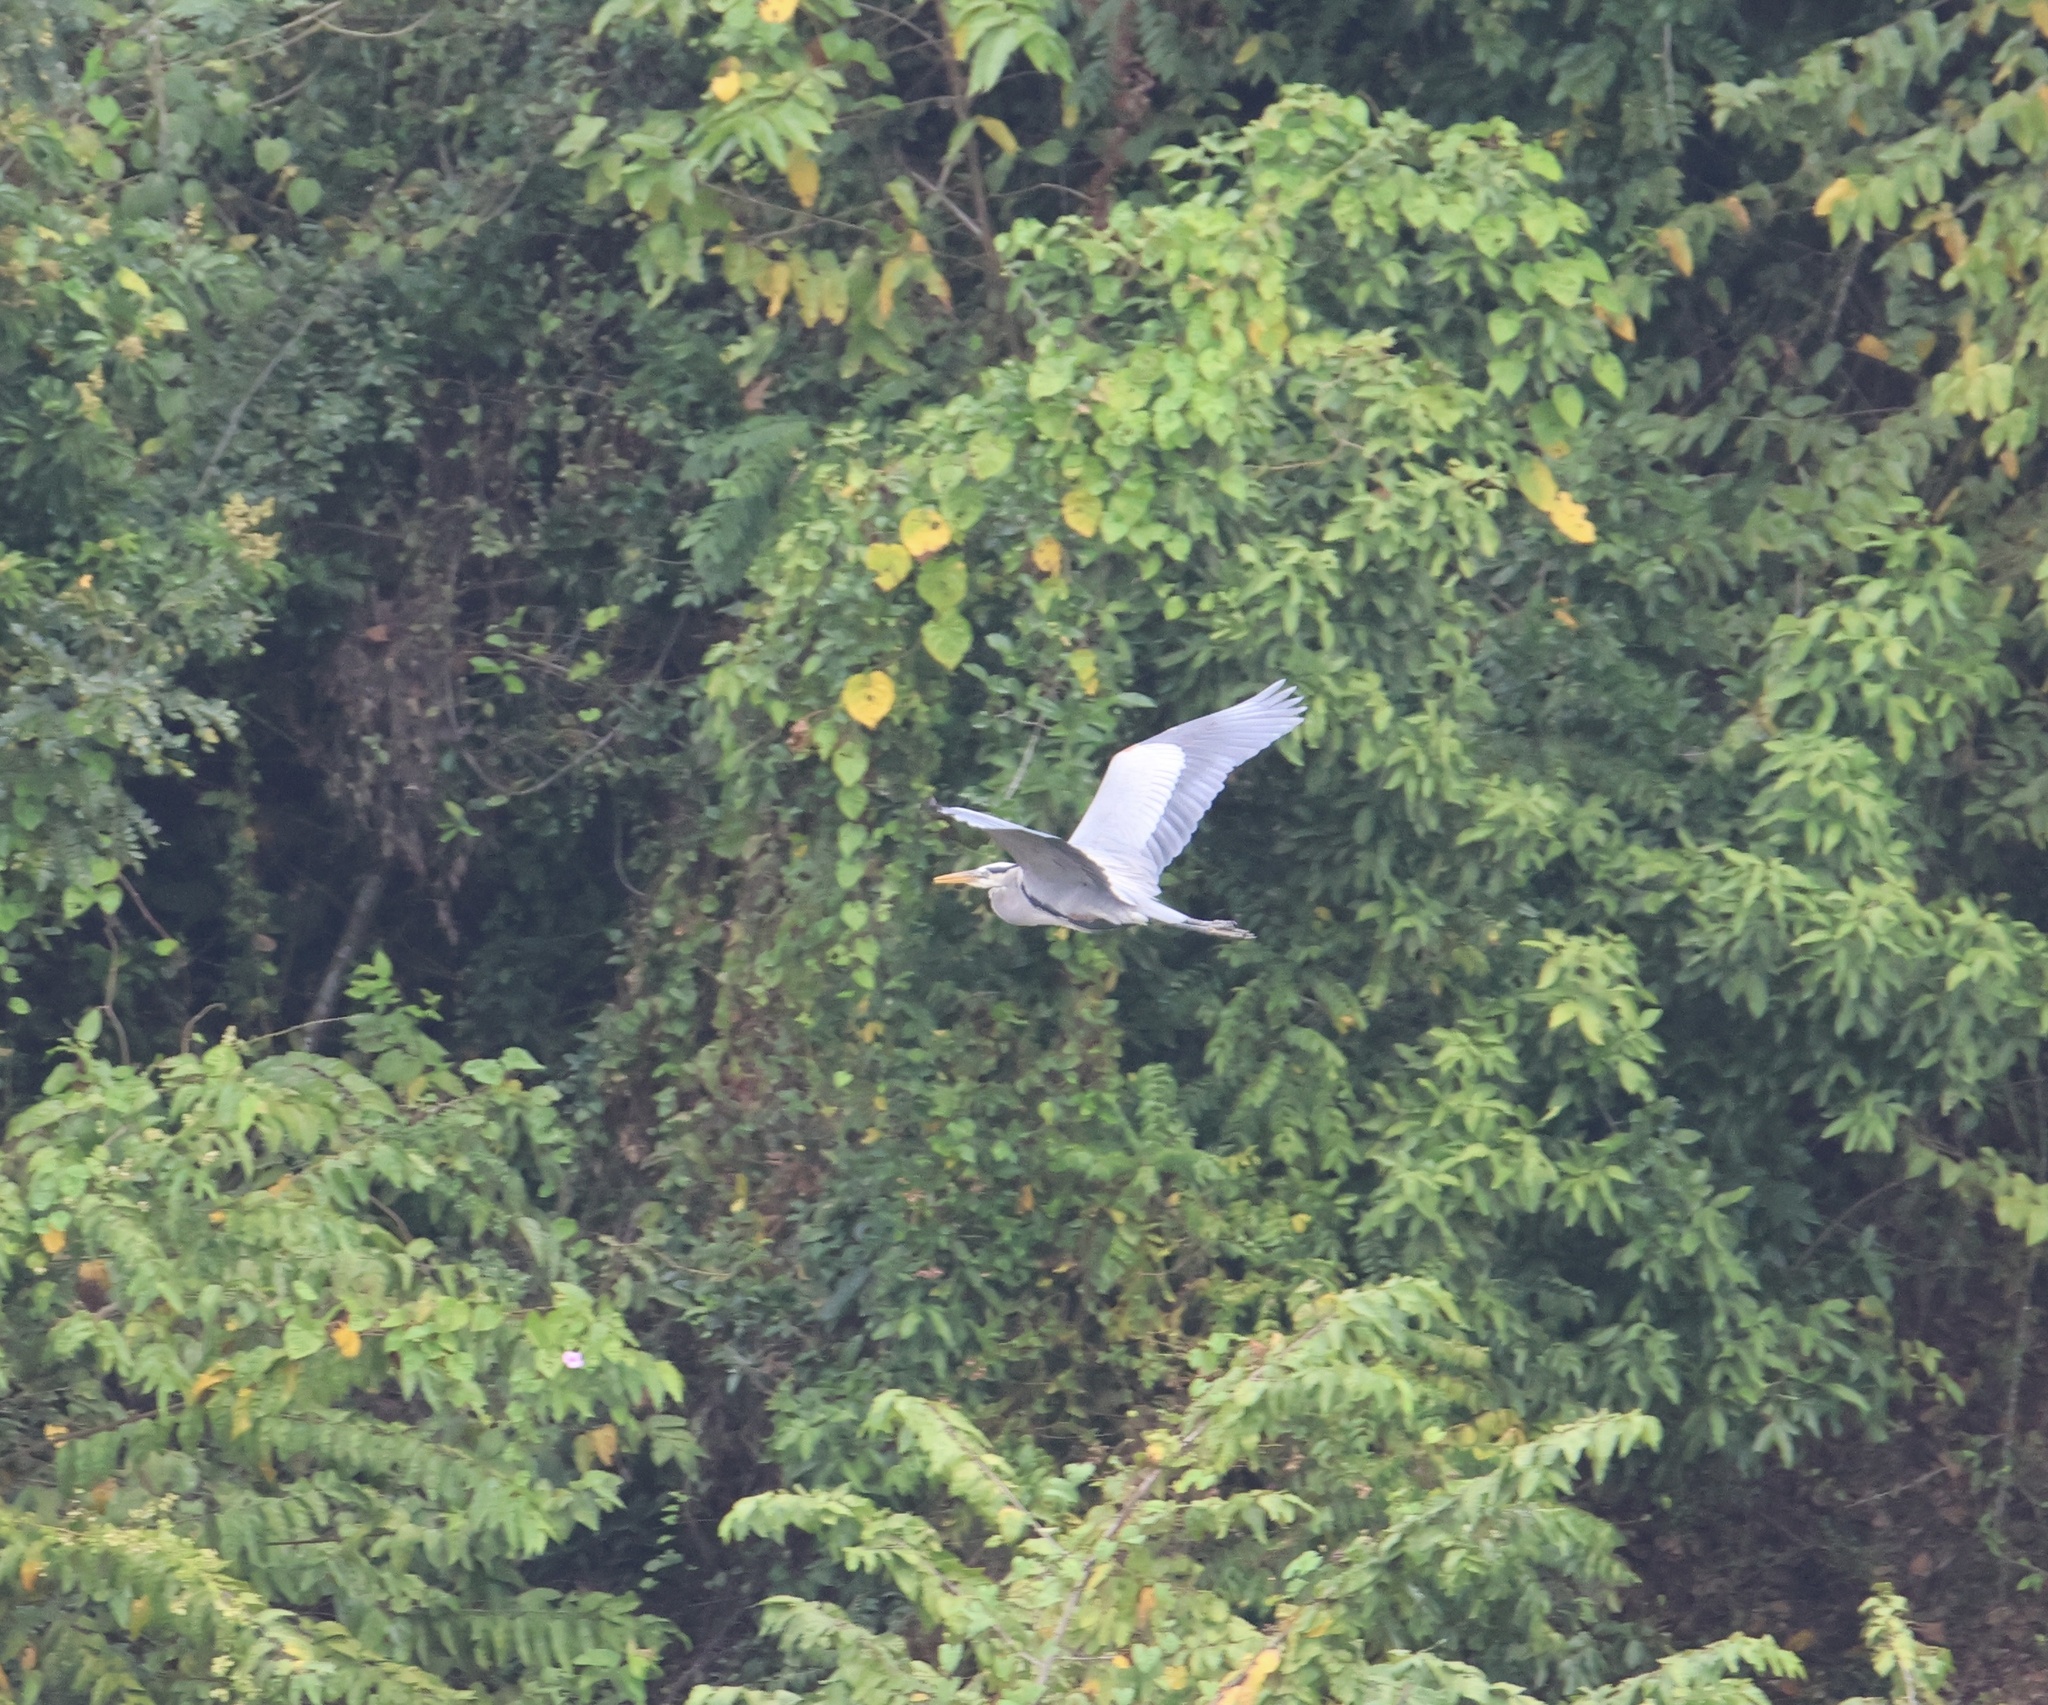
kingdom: Animalia
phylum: Chordata
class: Aves
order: Pelecaniformes
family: Ardeidae
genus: Ardea
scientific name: Ardea herodias
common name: Great blue heron
